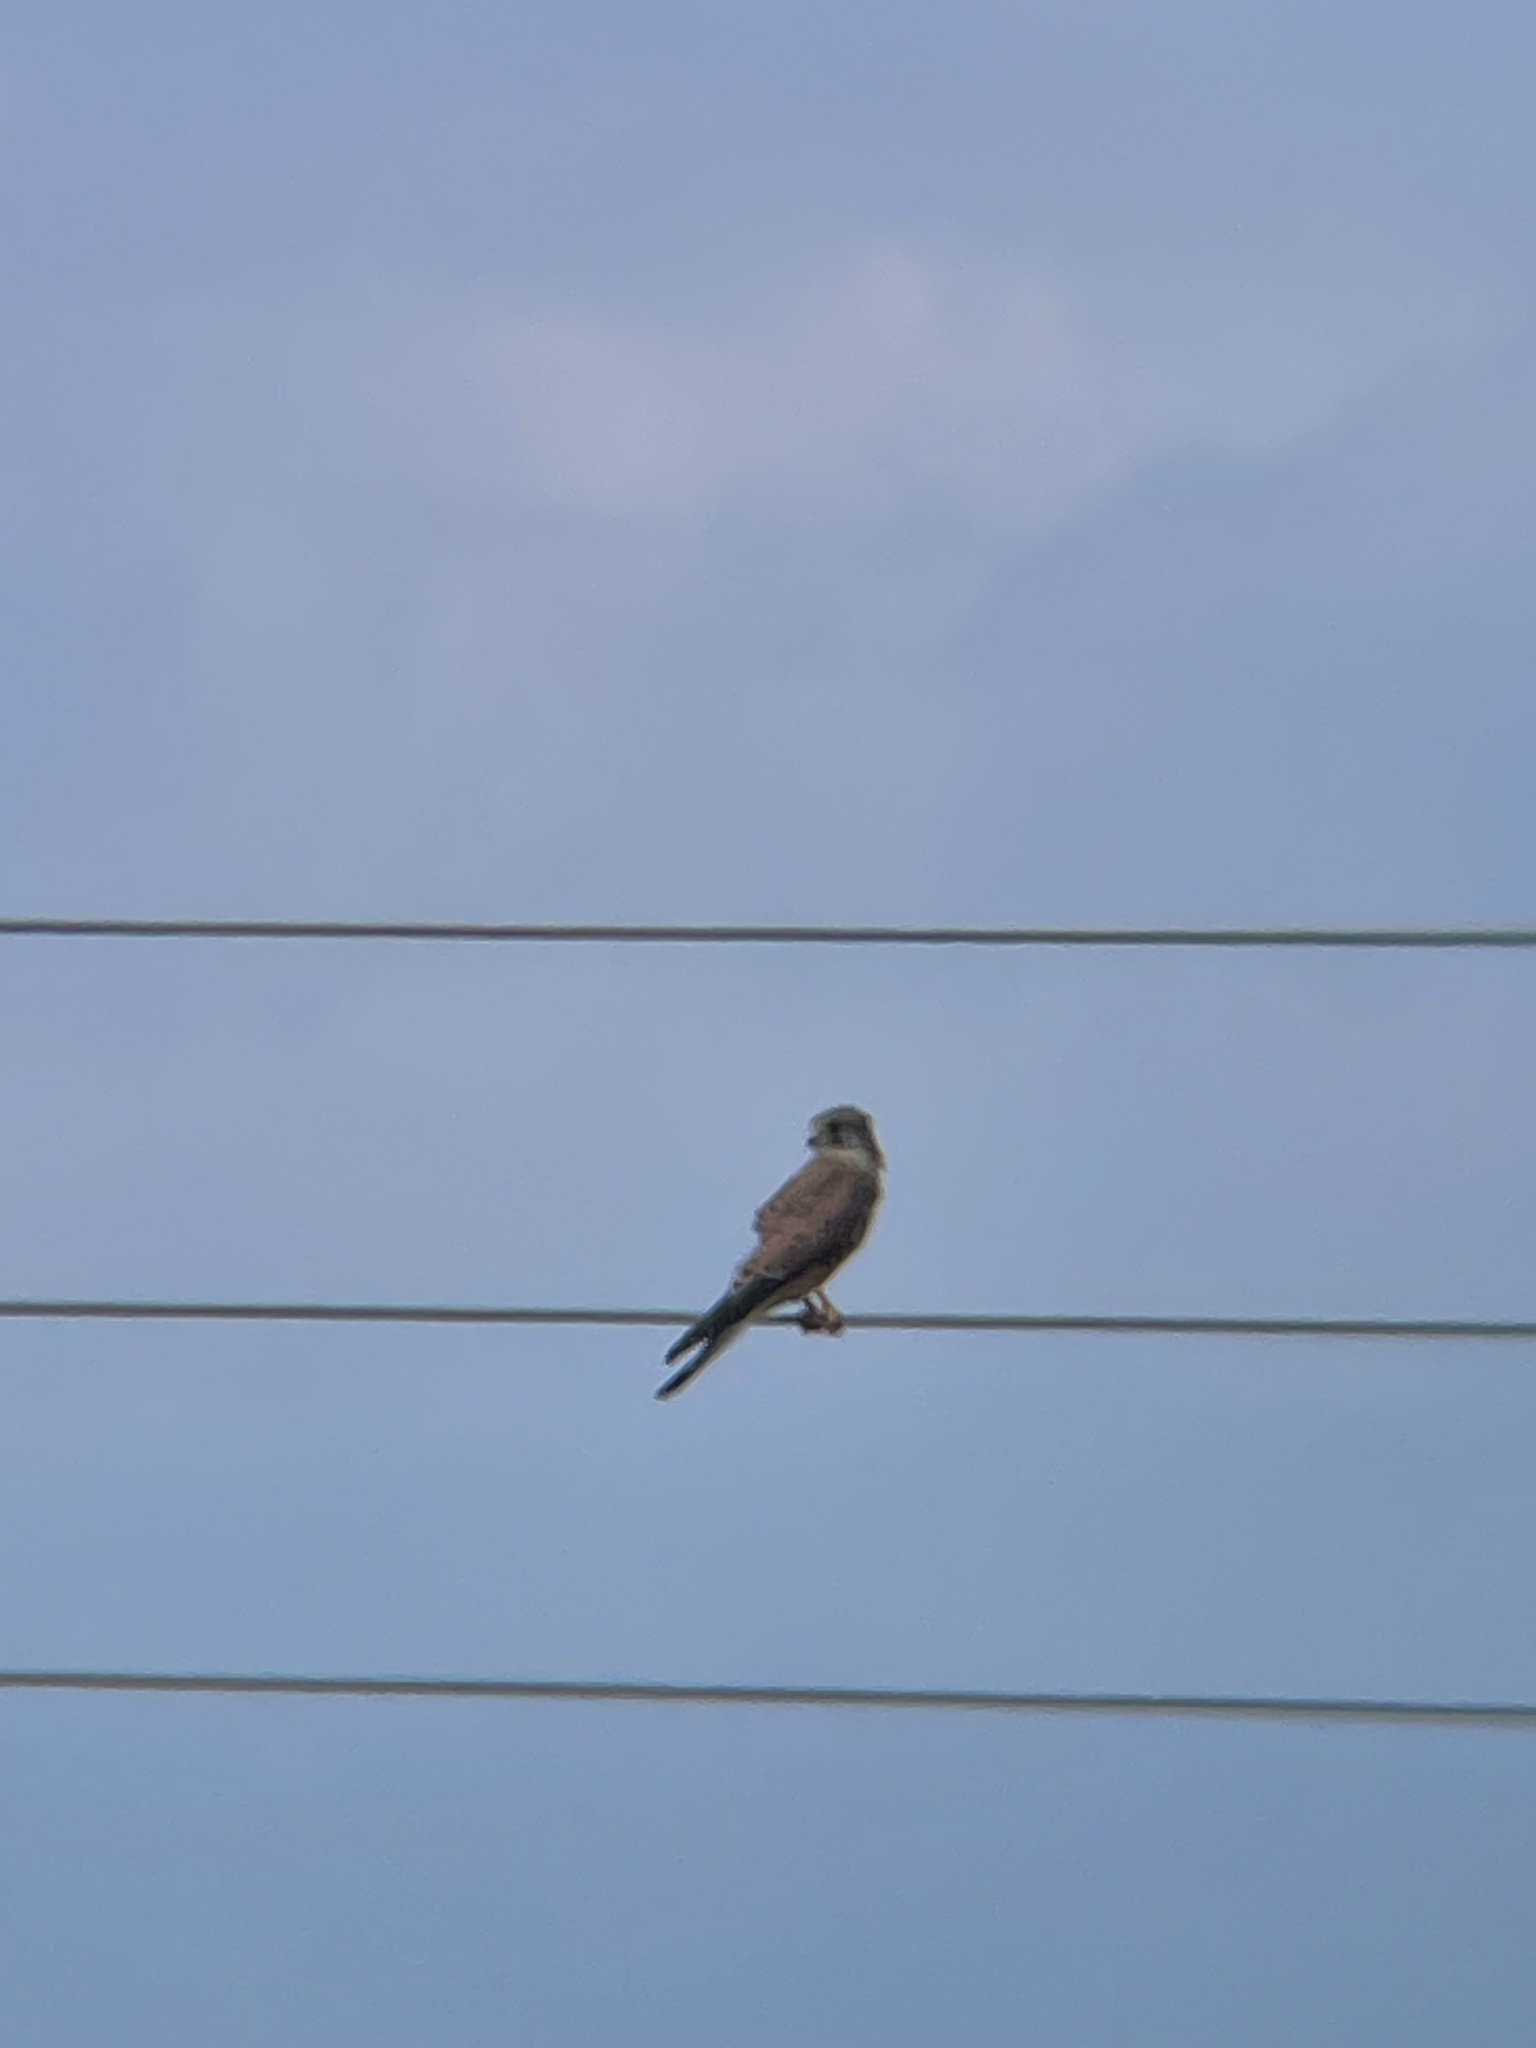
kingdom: Animalia
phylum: Chordata
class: Aves
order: Falconiformes
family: Falconidae
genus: Falco
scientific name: Falco tinnunculus
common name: Common kestrel
